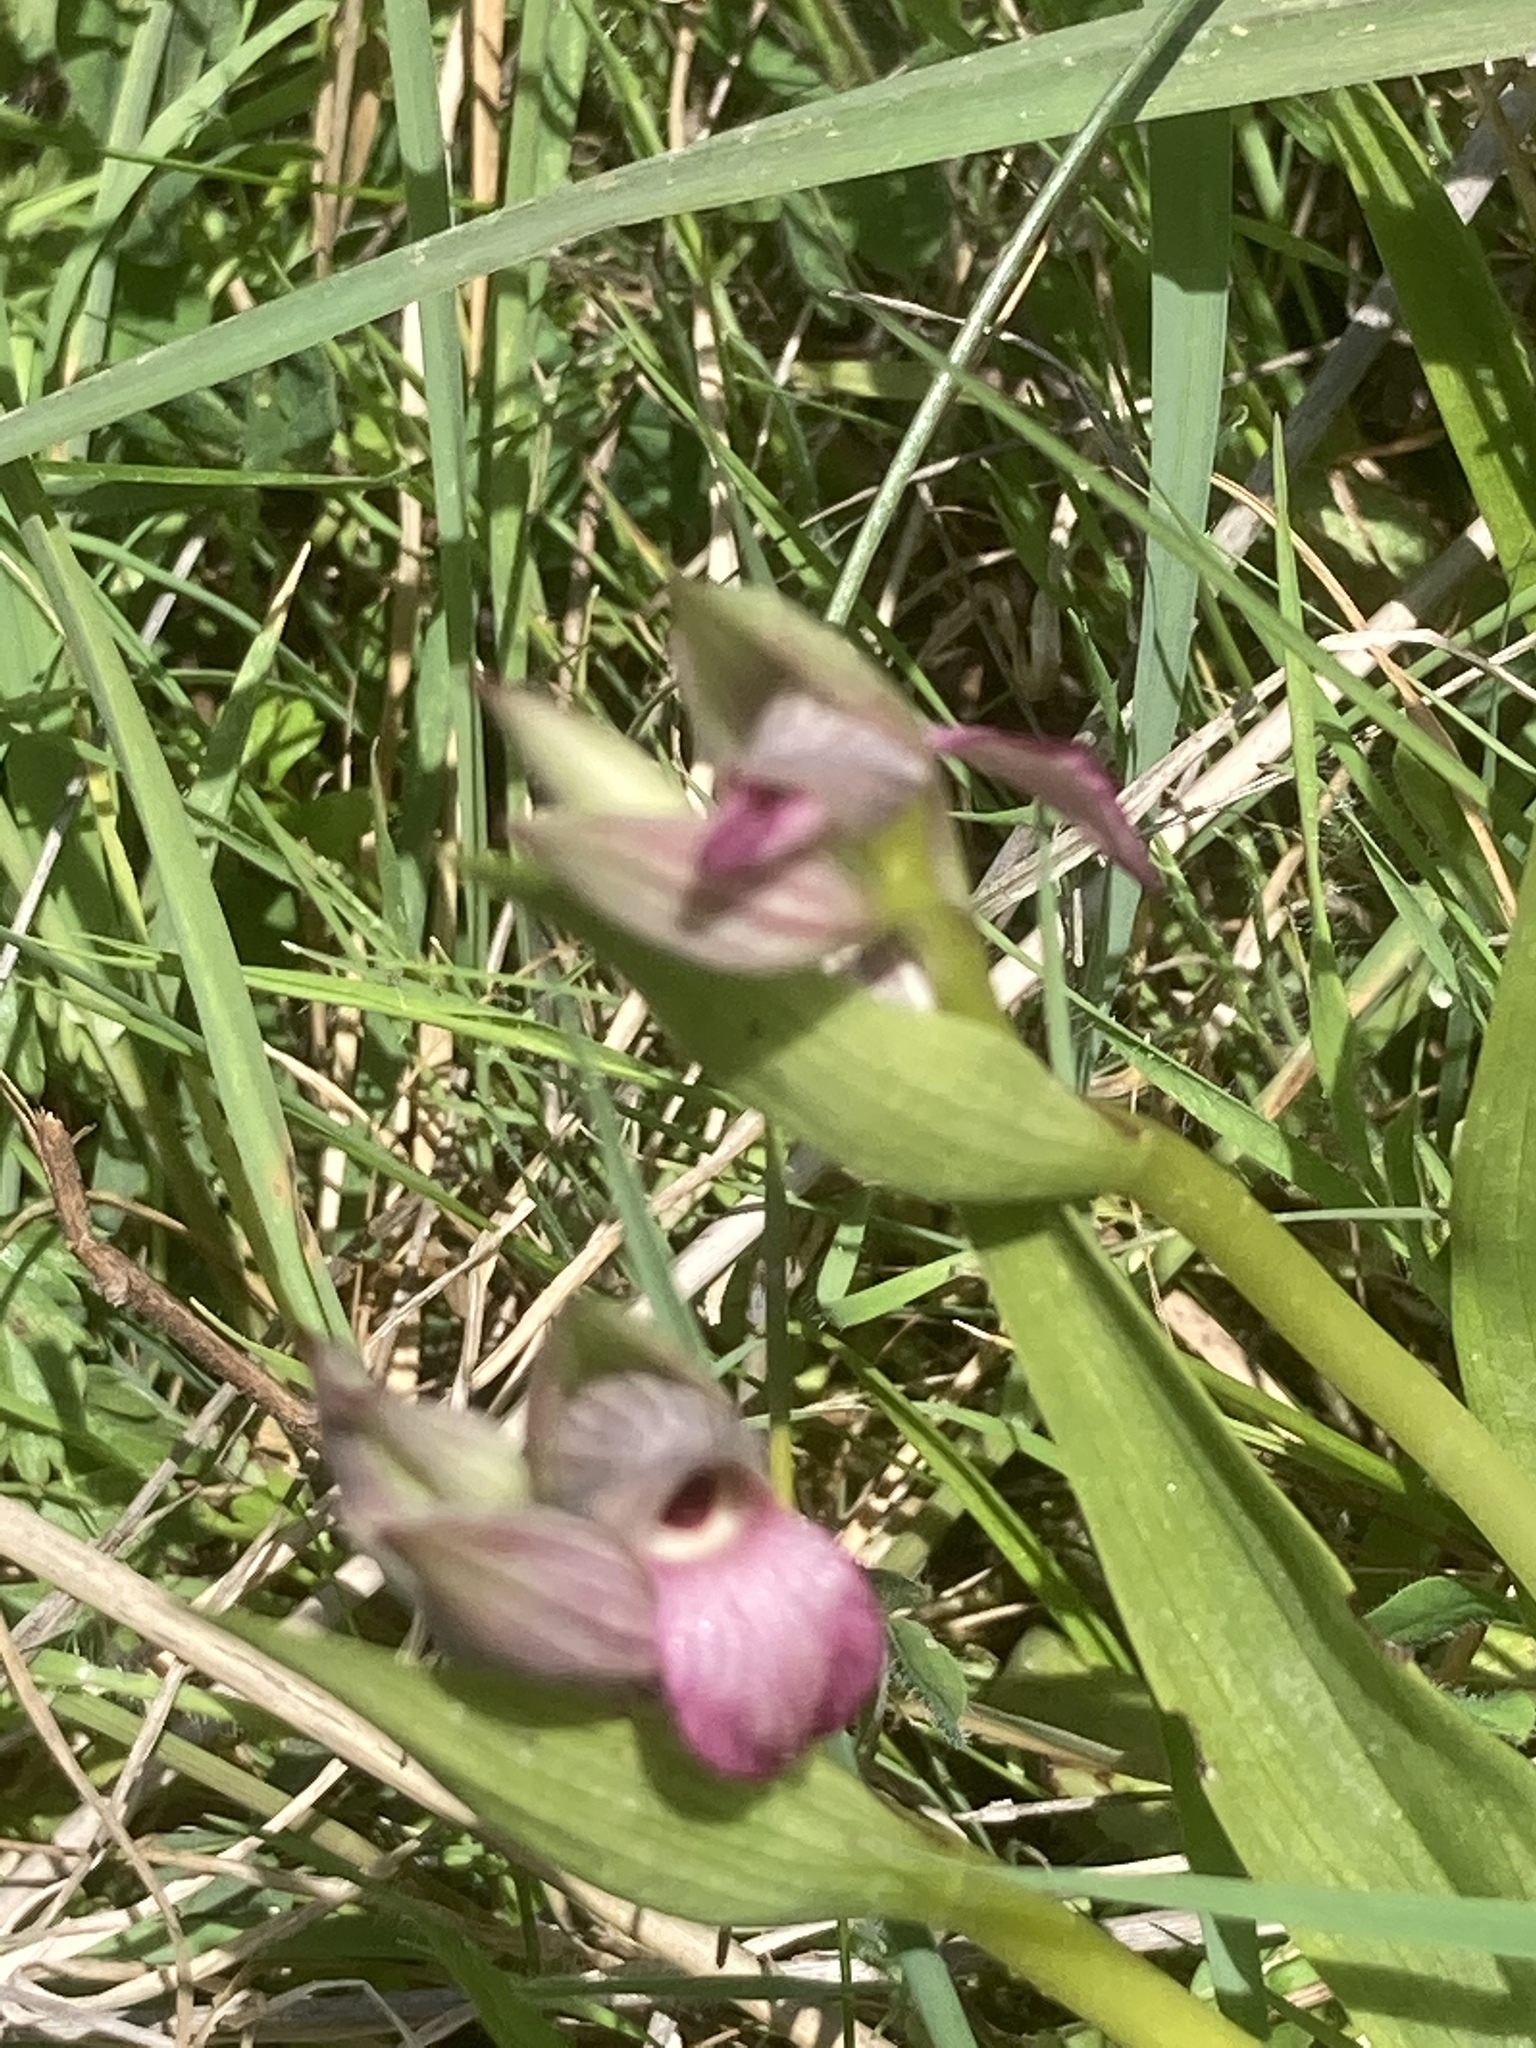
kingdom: Plantae
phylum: Tracheophyta
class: Liliopsida
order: Asparagales
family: Orchidaceae
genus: Serapias
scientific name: Serapias lingua
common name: Tongue-orchid
